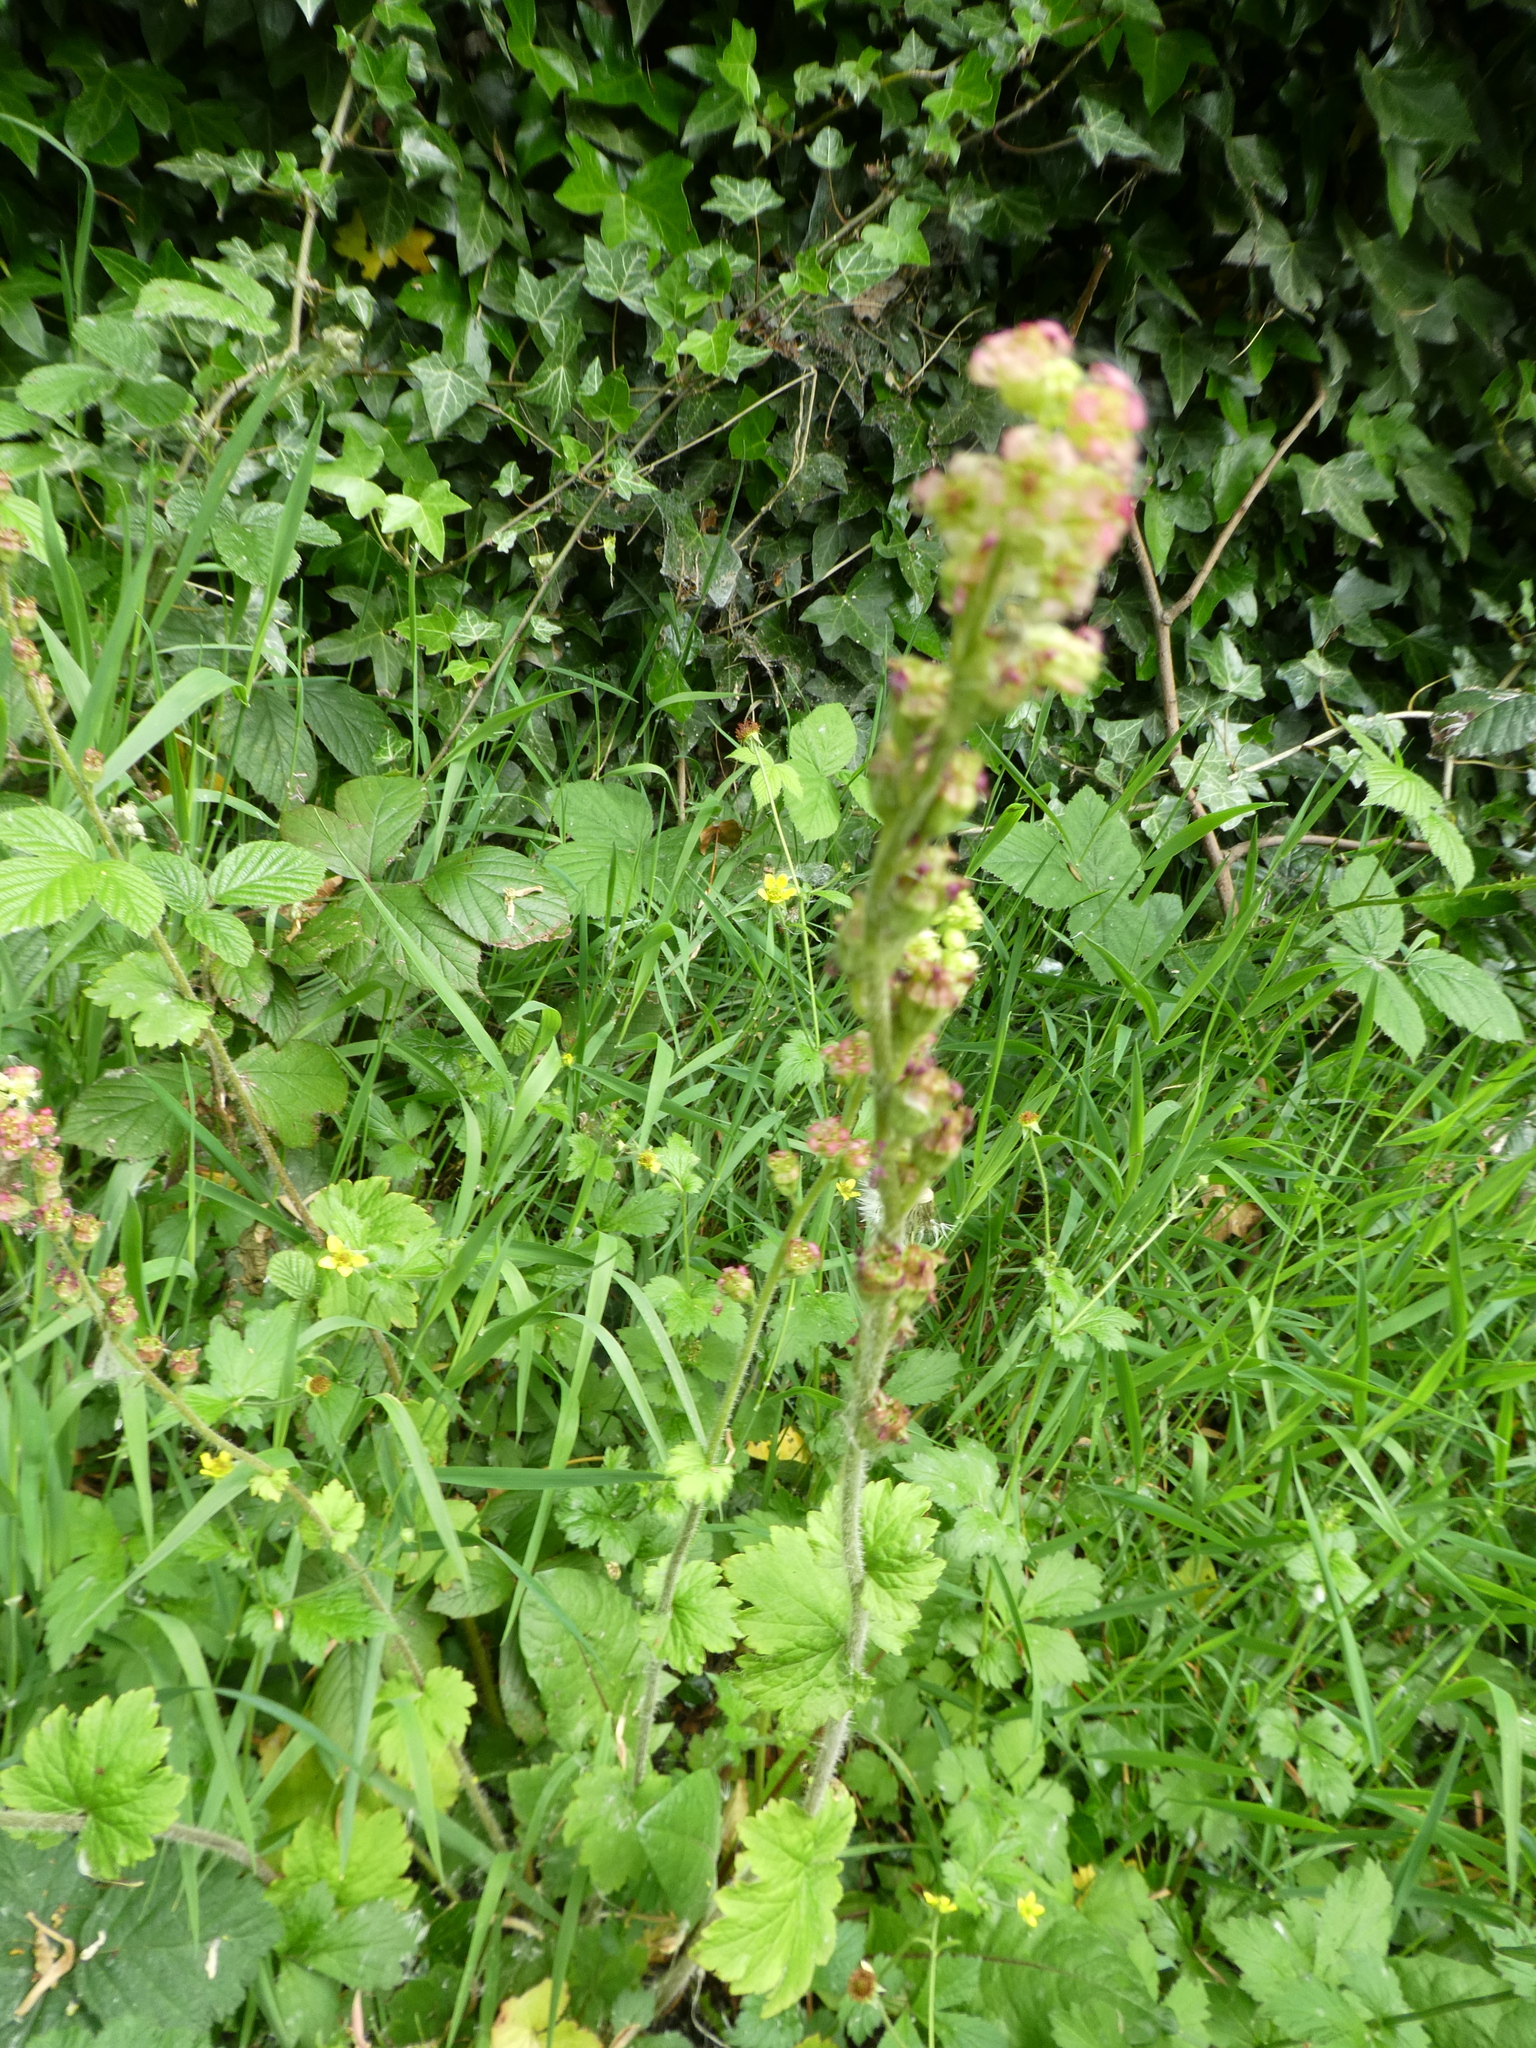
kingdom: Plantae
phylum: Tracheophyta
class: Magnoliopsida
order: Saxifragales
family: Saxifragaceae
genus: Tellima
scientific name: Tellima grandiflora
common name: Fringecups
